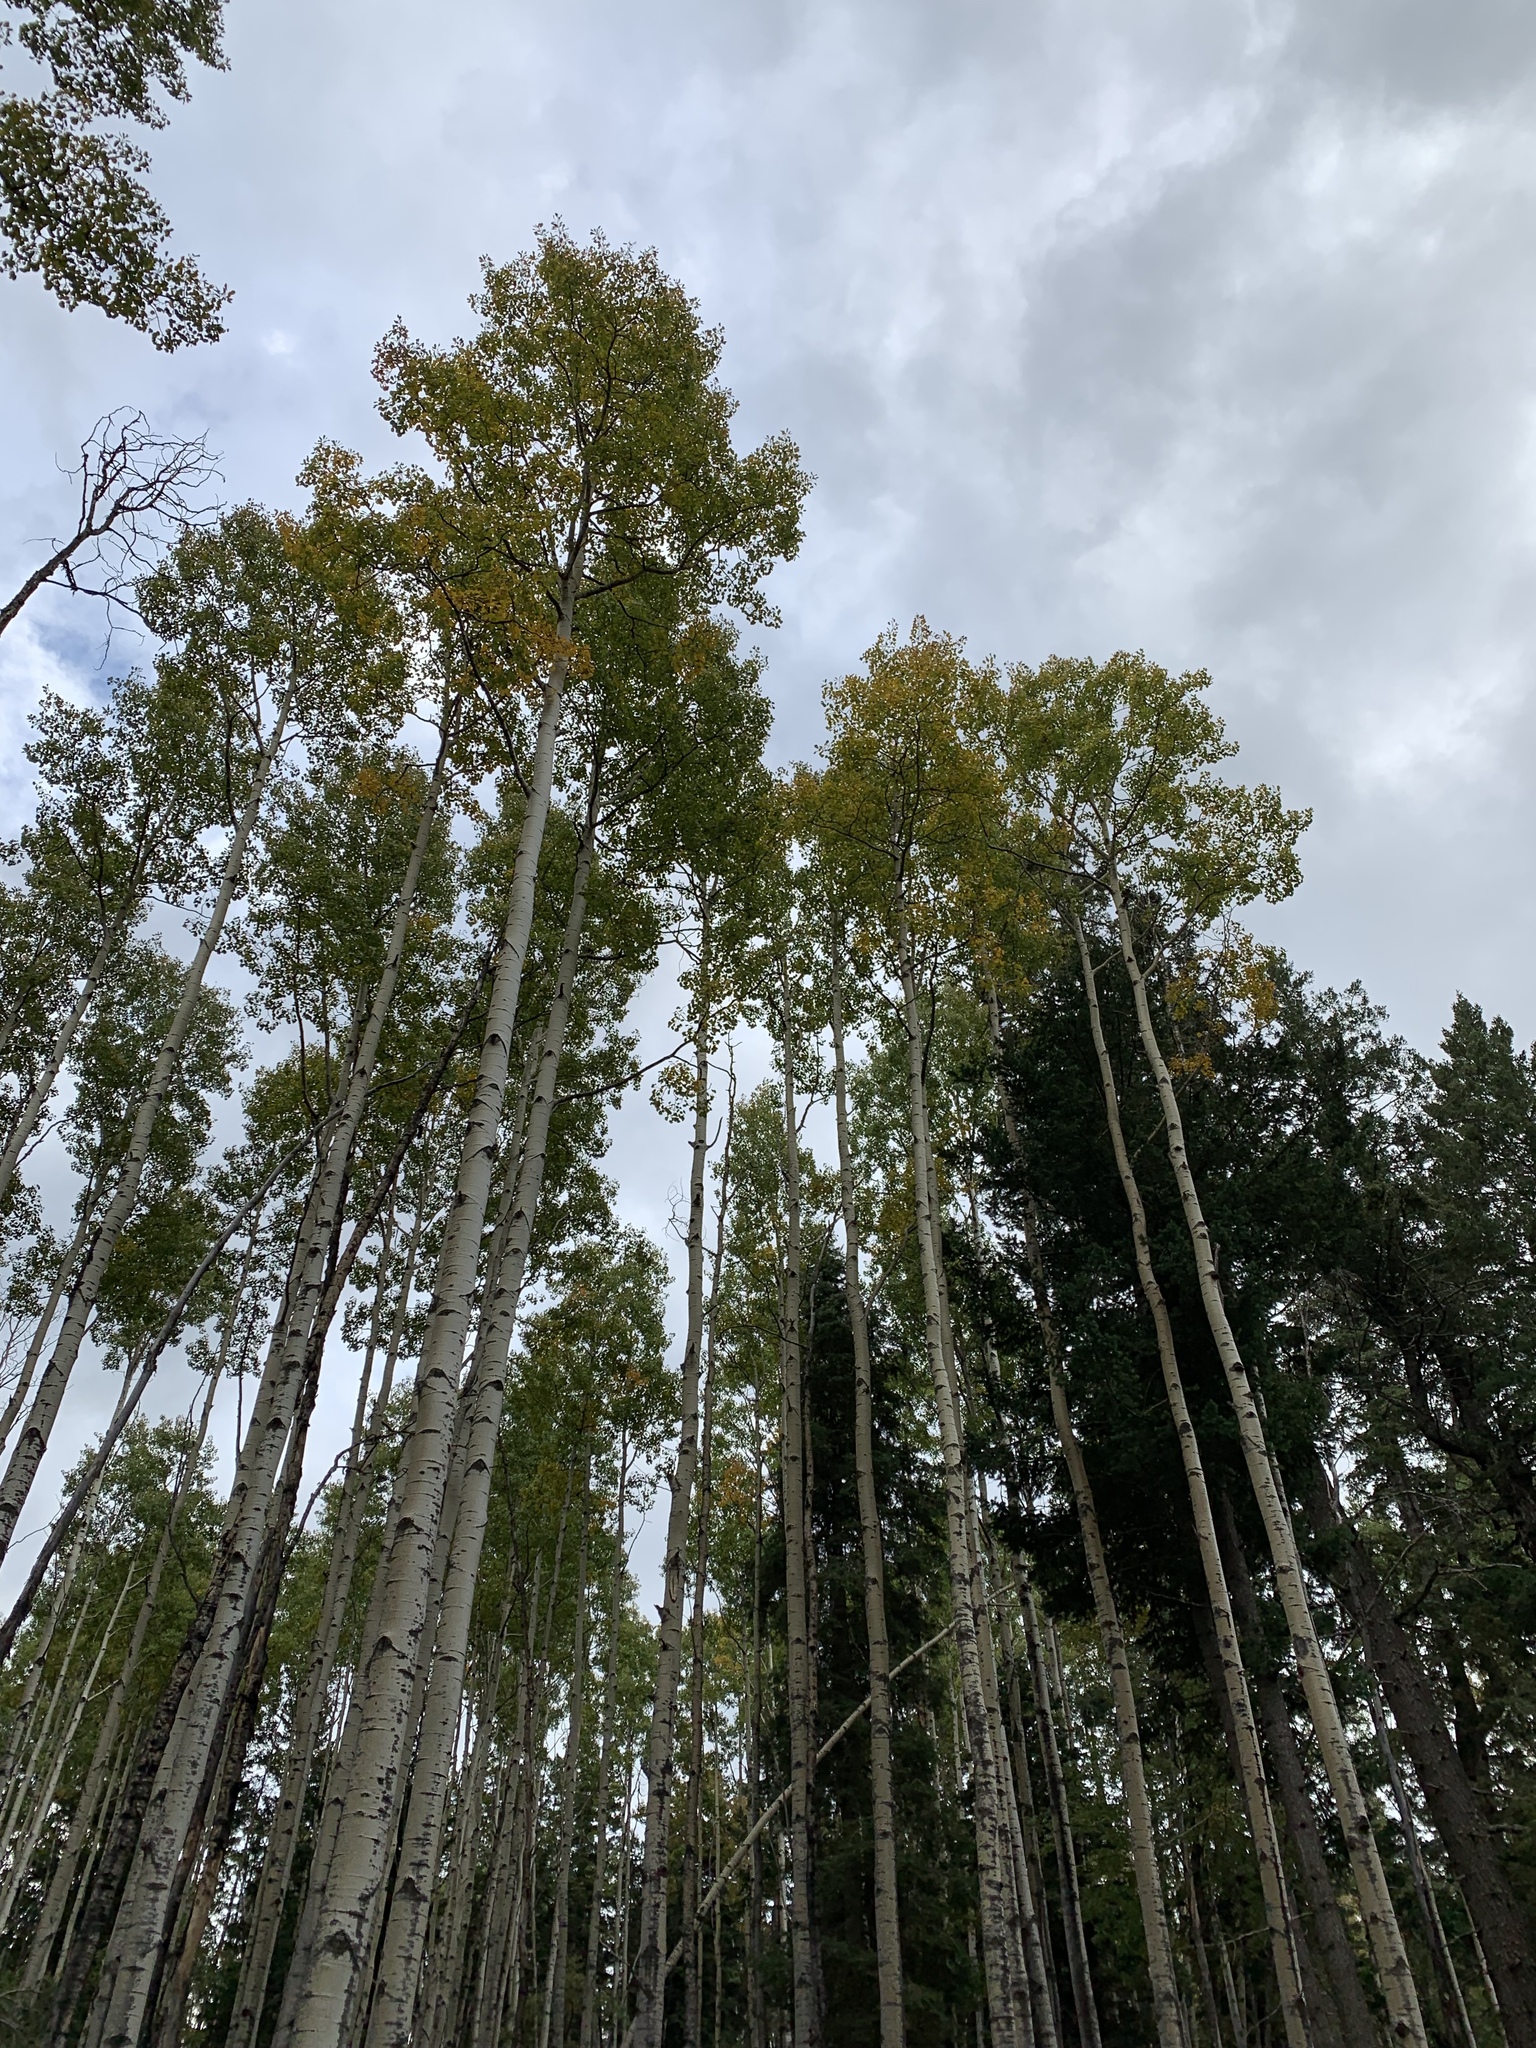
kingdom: Plantae
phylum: Tracheophyta
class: Magnoliopsida
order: Malpighiales
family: Salicaceae
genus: Populus
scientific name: Populus tremuloides
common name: Quaking aspen
